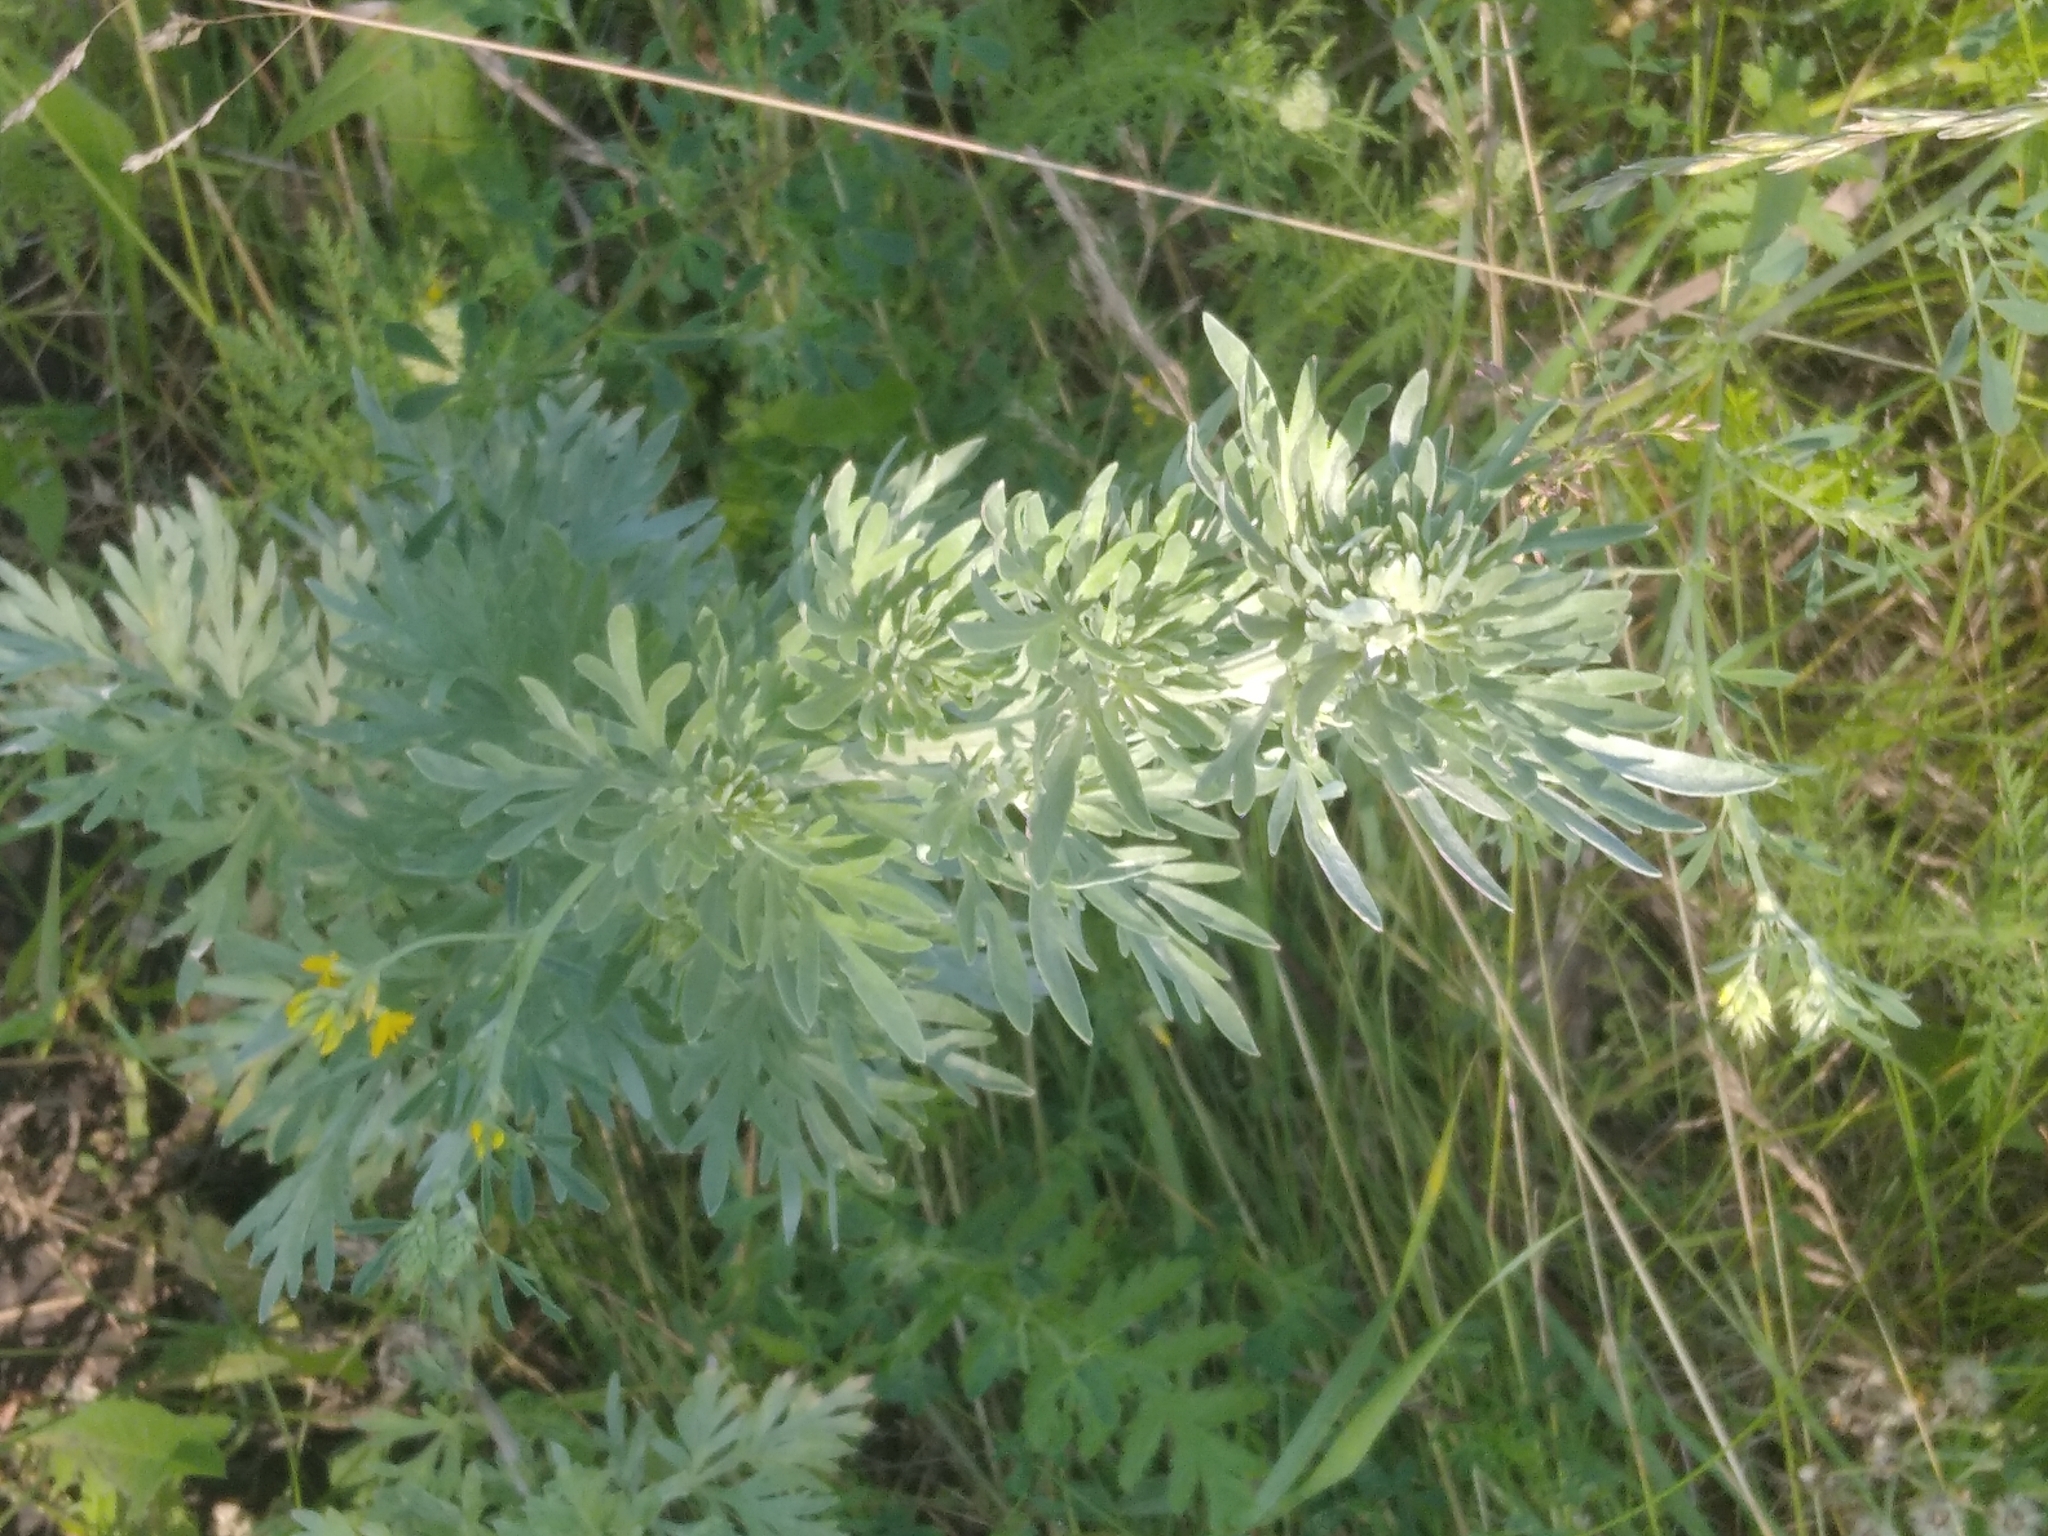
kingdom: Plantae
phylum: Tracheophyta
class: Magnoliopsida
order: Asterales
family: Asteraceae
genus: Artemisia
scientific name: Artemisia absinthium
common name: Wormwood
